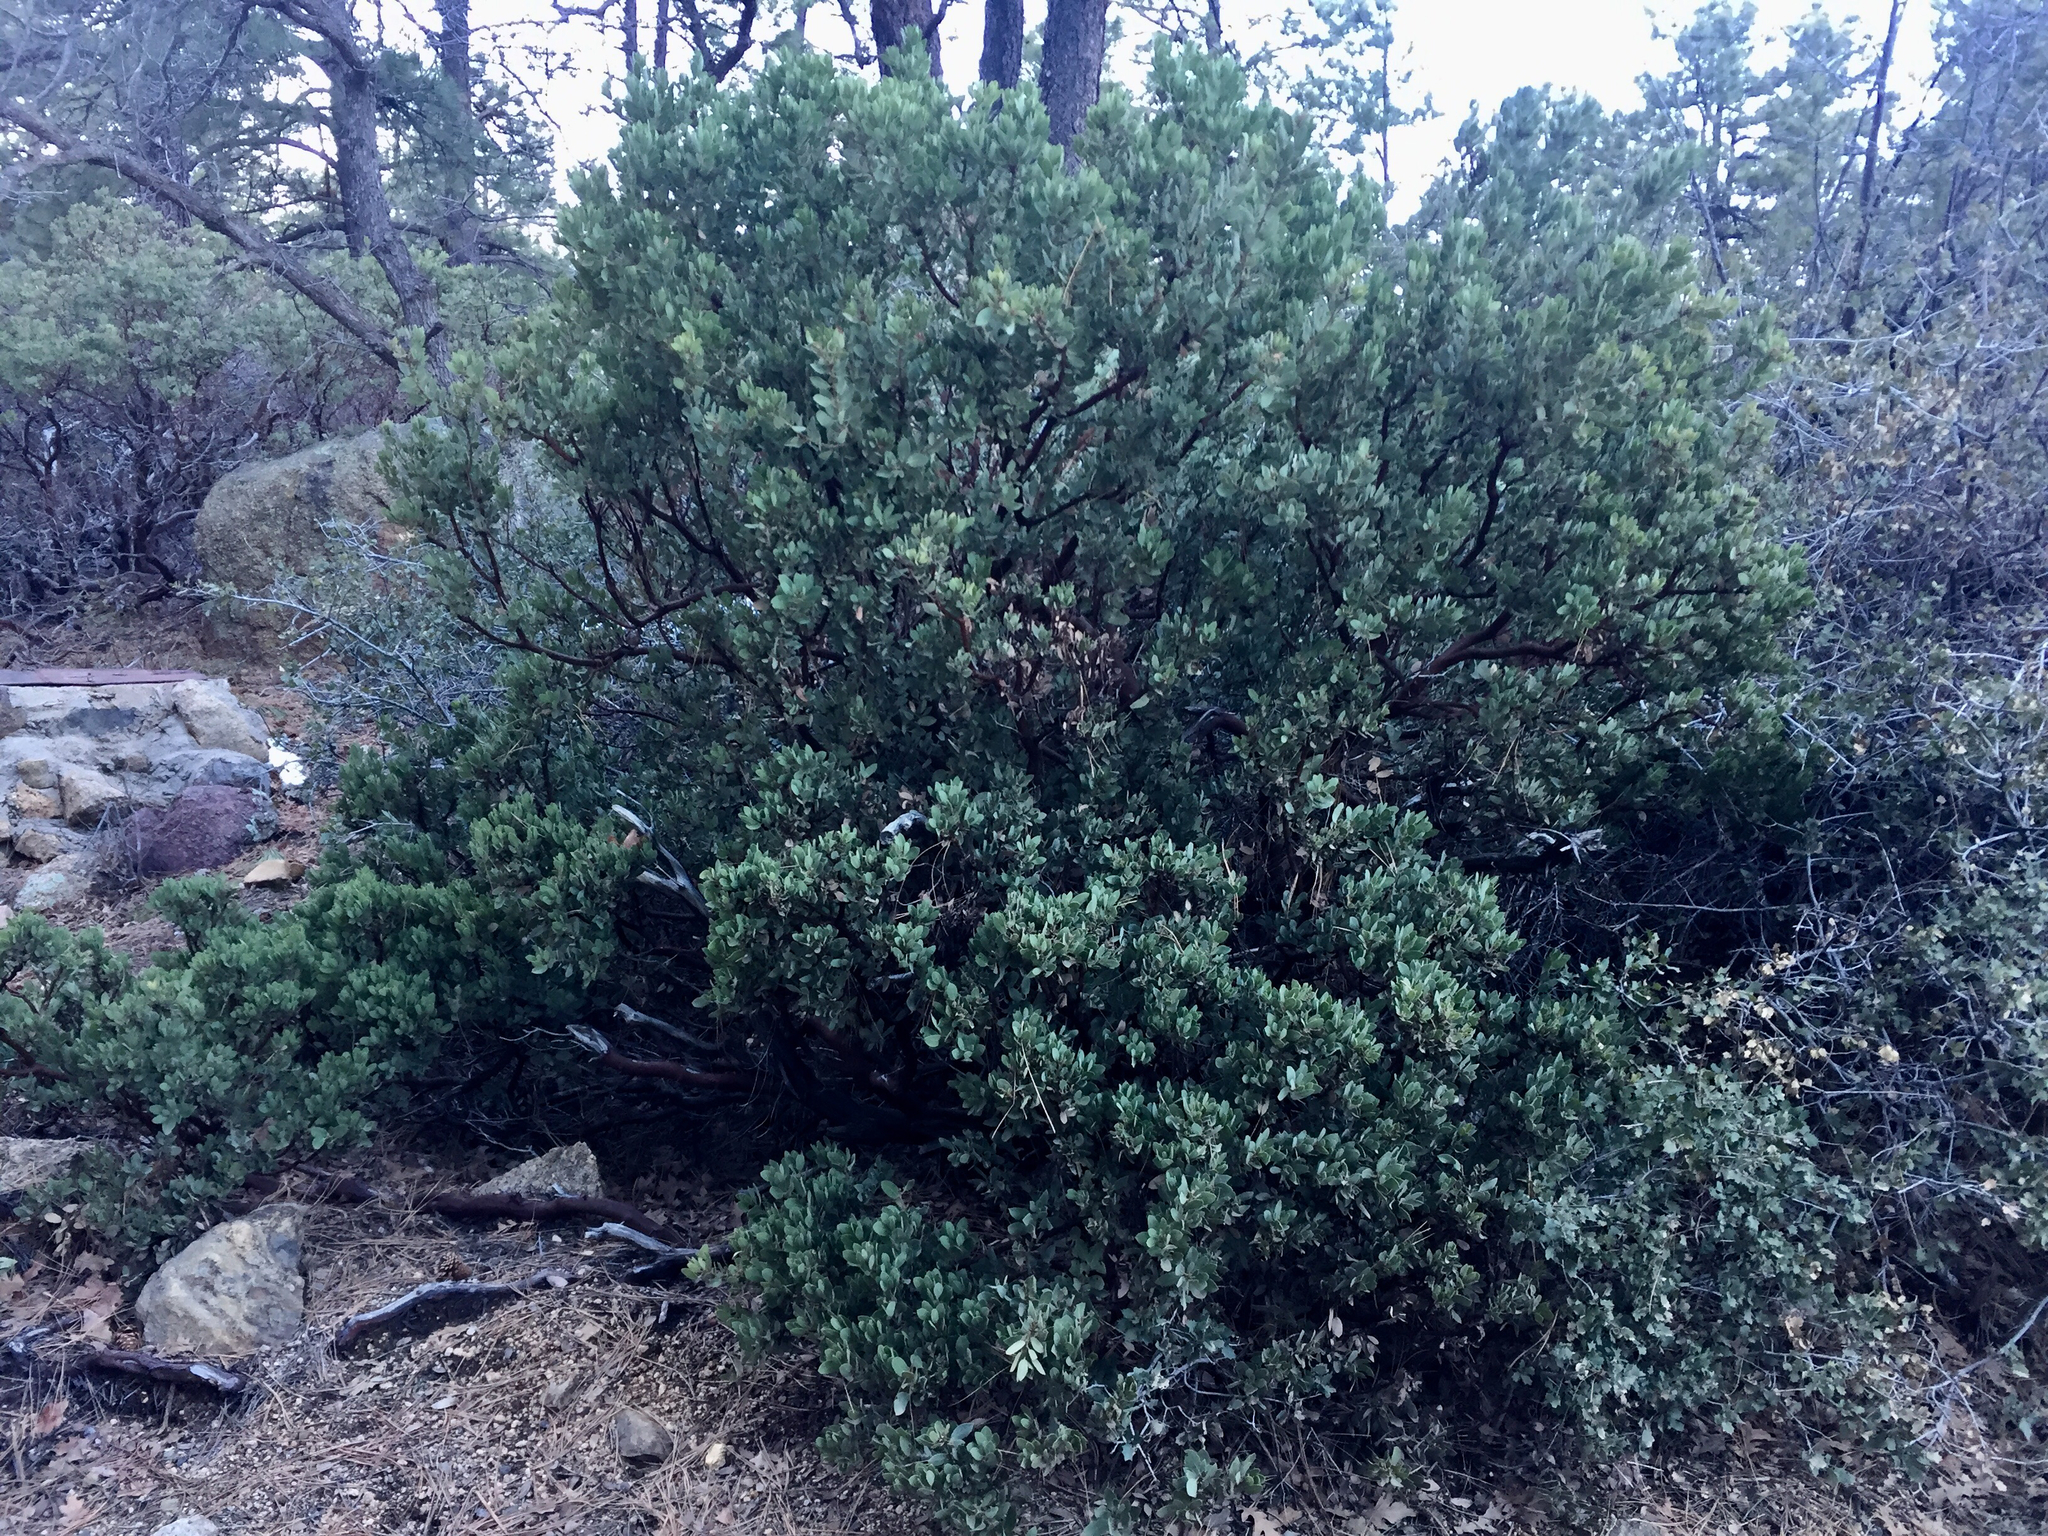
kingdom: Plantae
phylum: Tracheophyta
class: Magnoliopsida
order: Ericales
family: Ericaceae
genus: Arctostaphylos
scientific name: Arctostaphylos pungens
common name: Mexican manzanita
